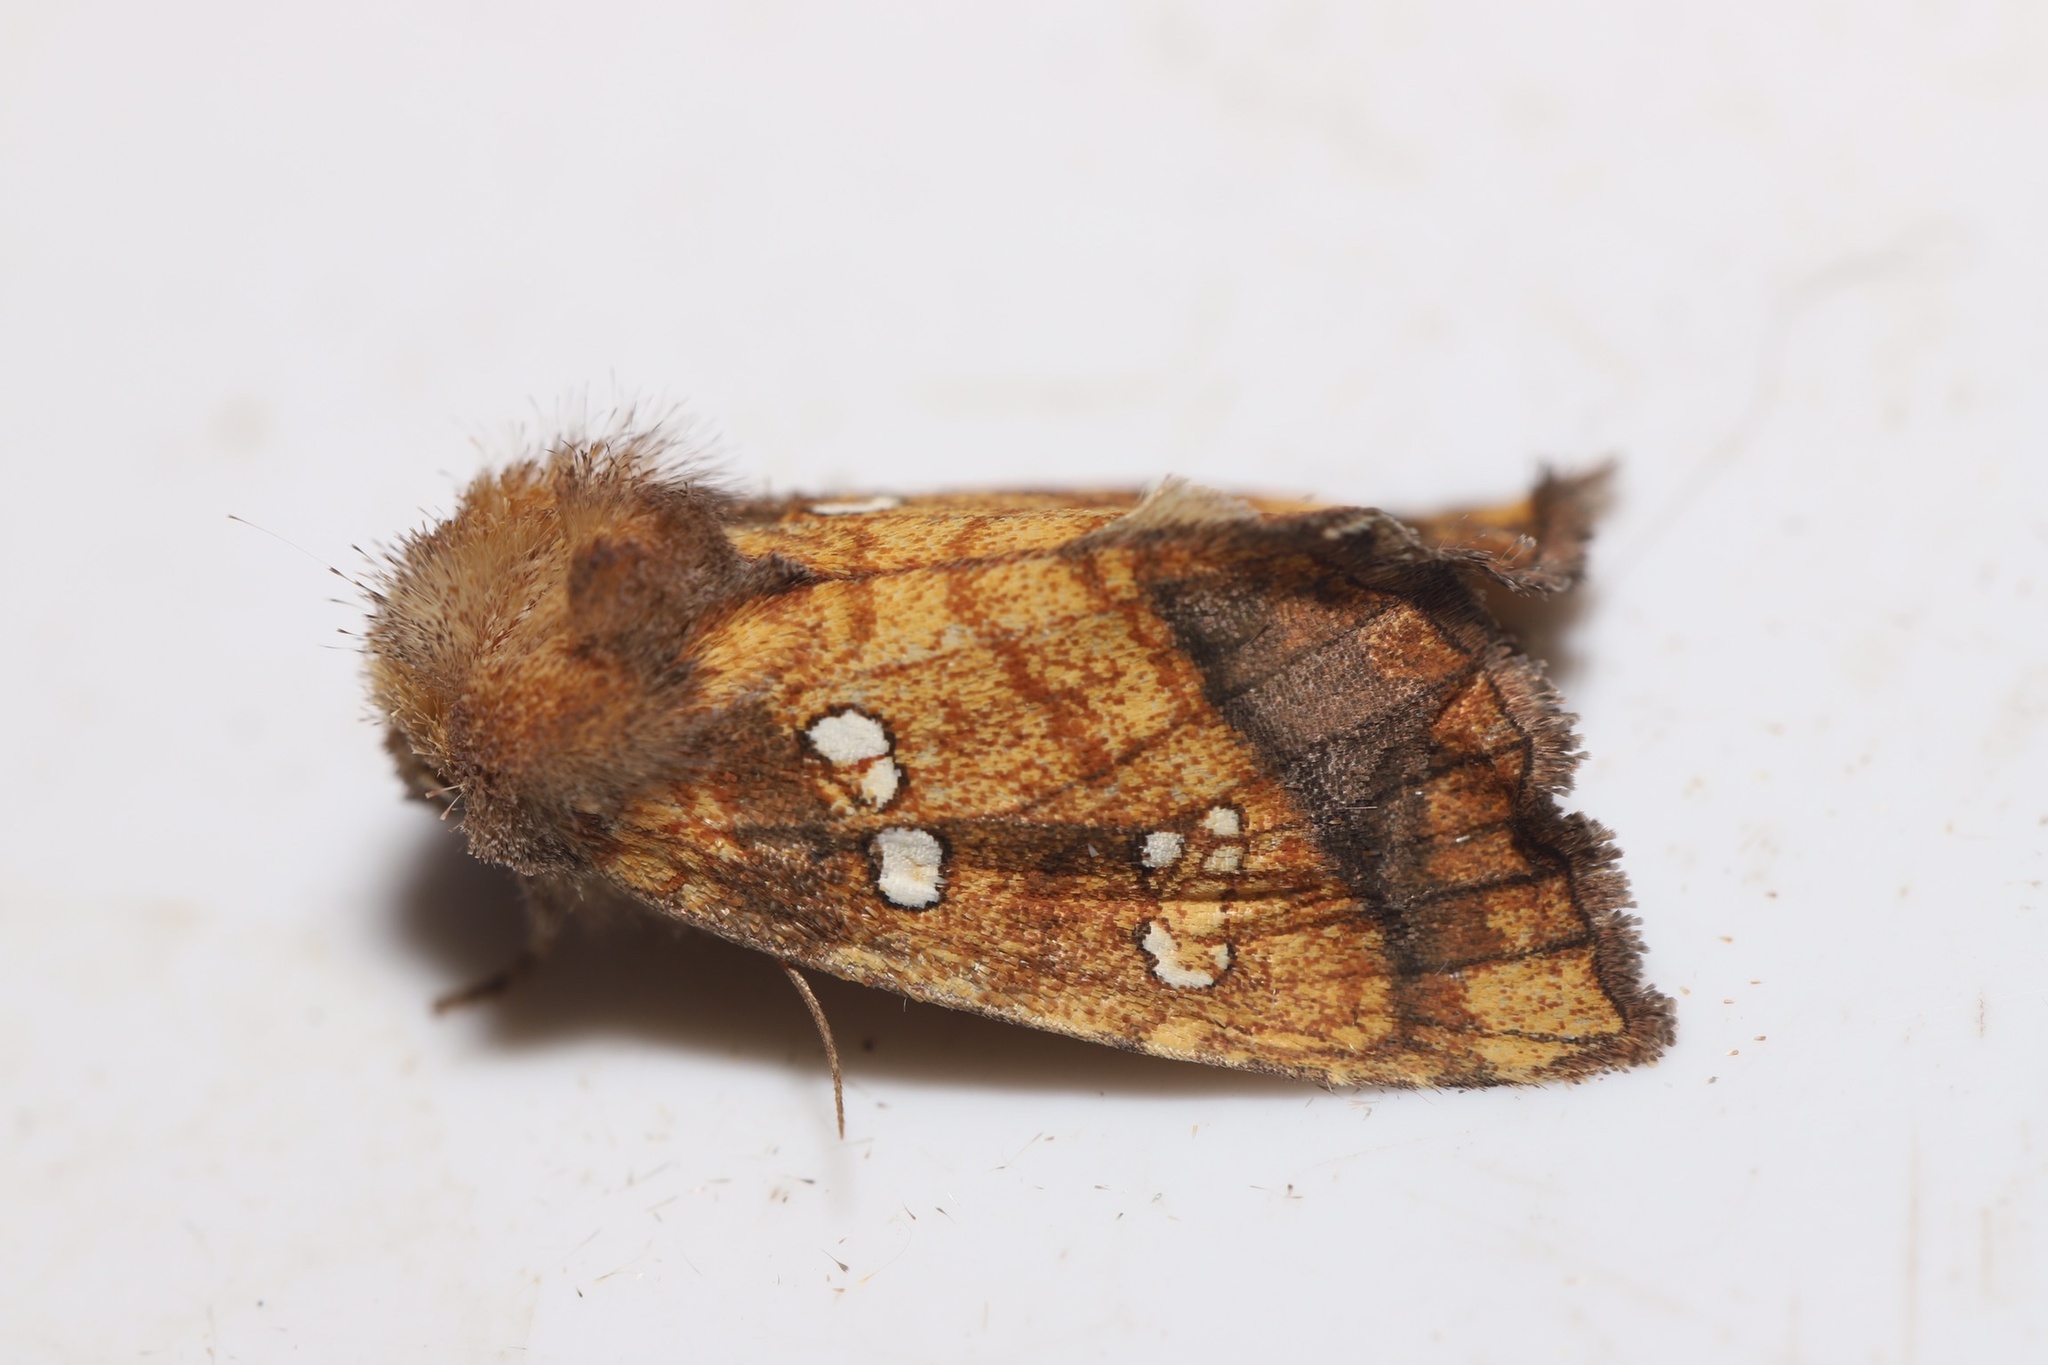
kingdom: Animalia
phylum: Arthropoda
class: Insecta
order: Lepidoptera
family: Noctuidae
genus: Papaipema
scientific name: Papaipema pterisii
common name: Bracken borer moth
